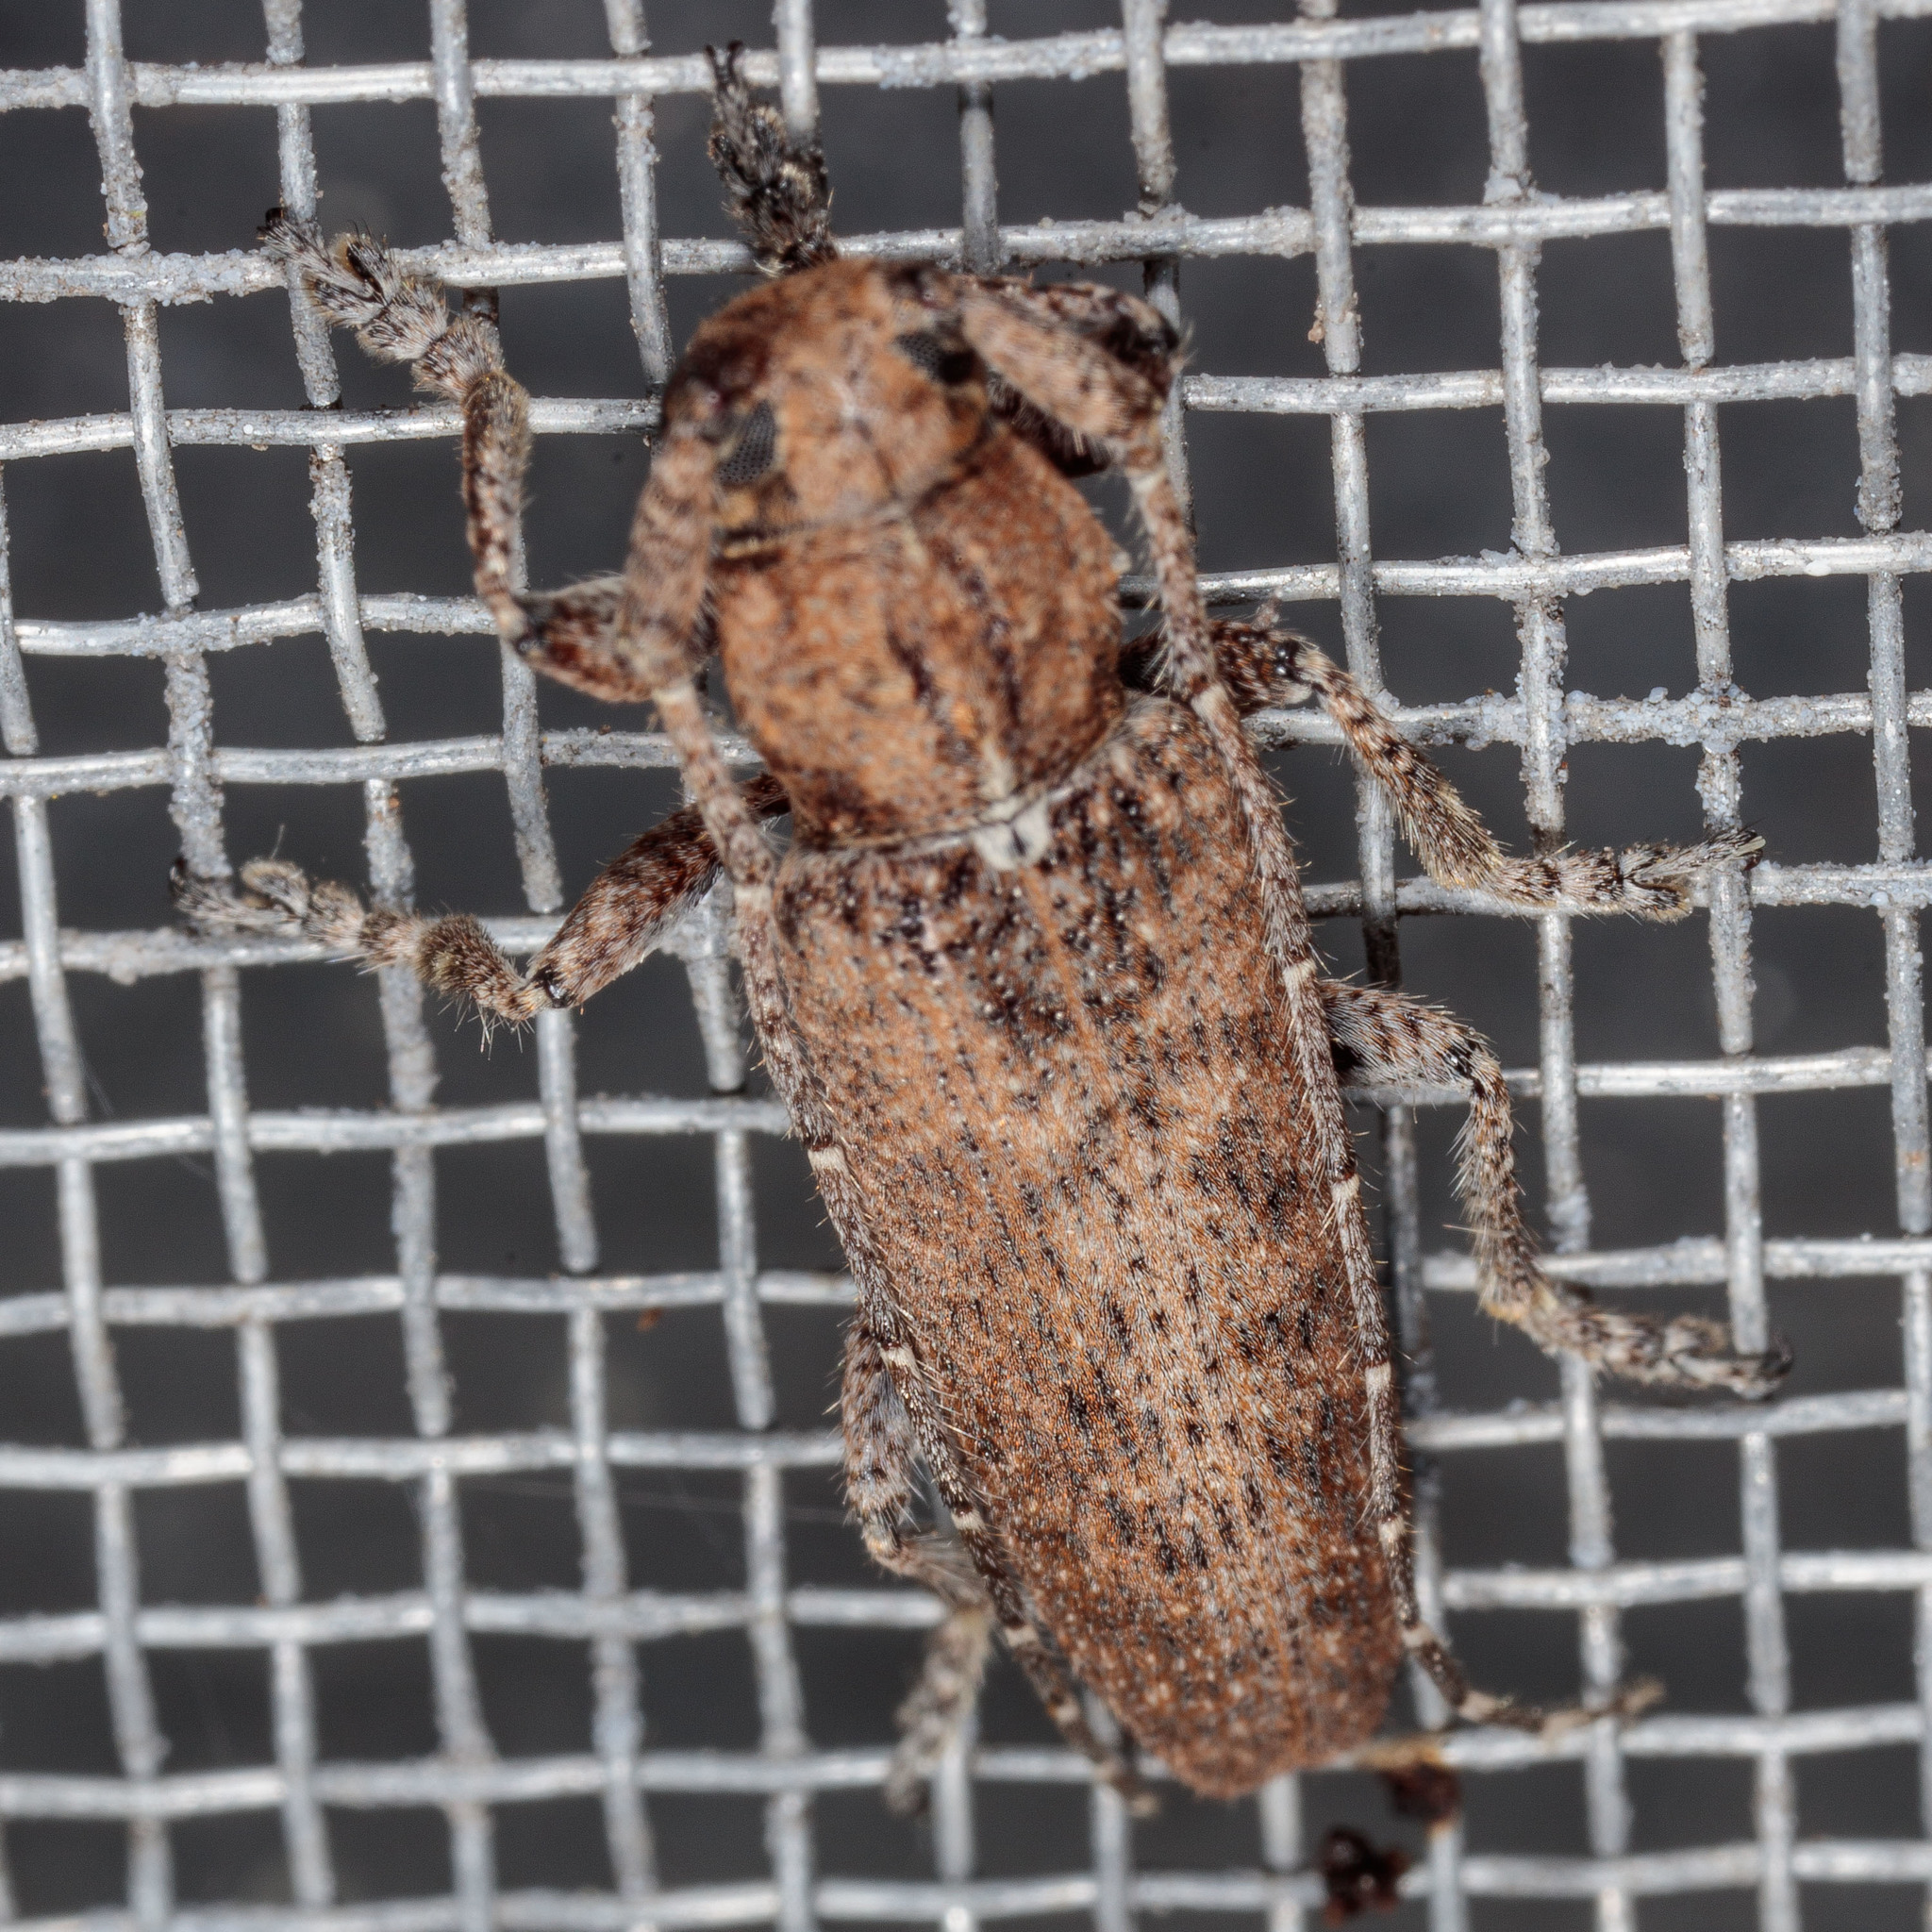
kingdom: Animalia
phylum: Arthropoda
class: Insecta
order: Coleoptera
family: Cerambycidae
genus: Ataxia
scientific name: Ataxia crypta
